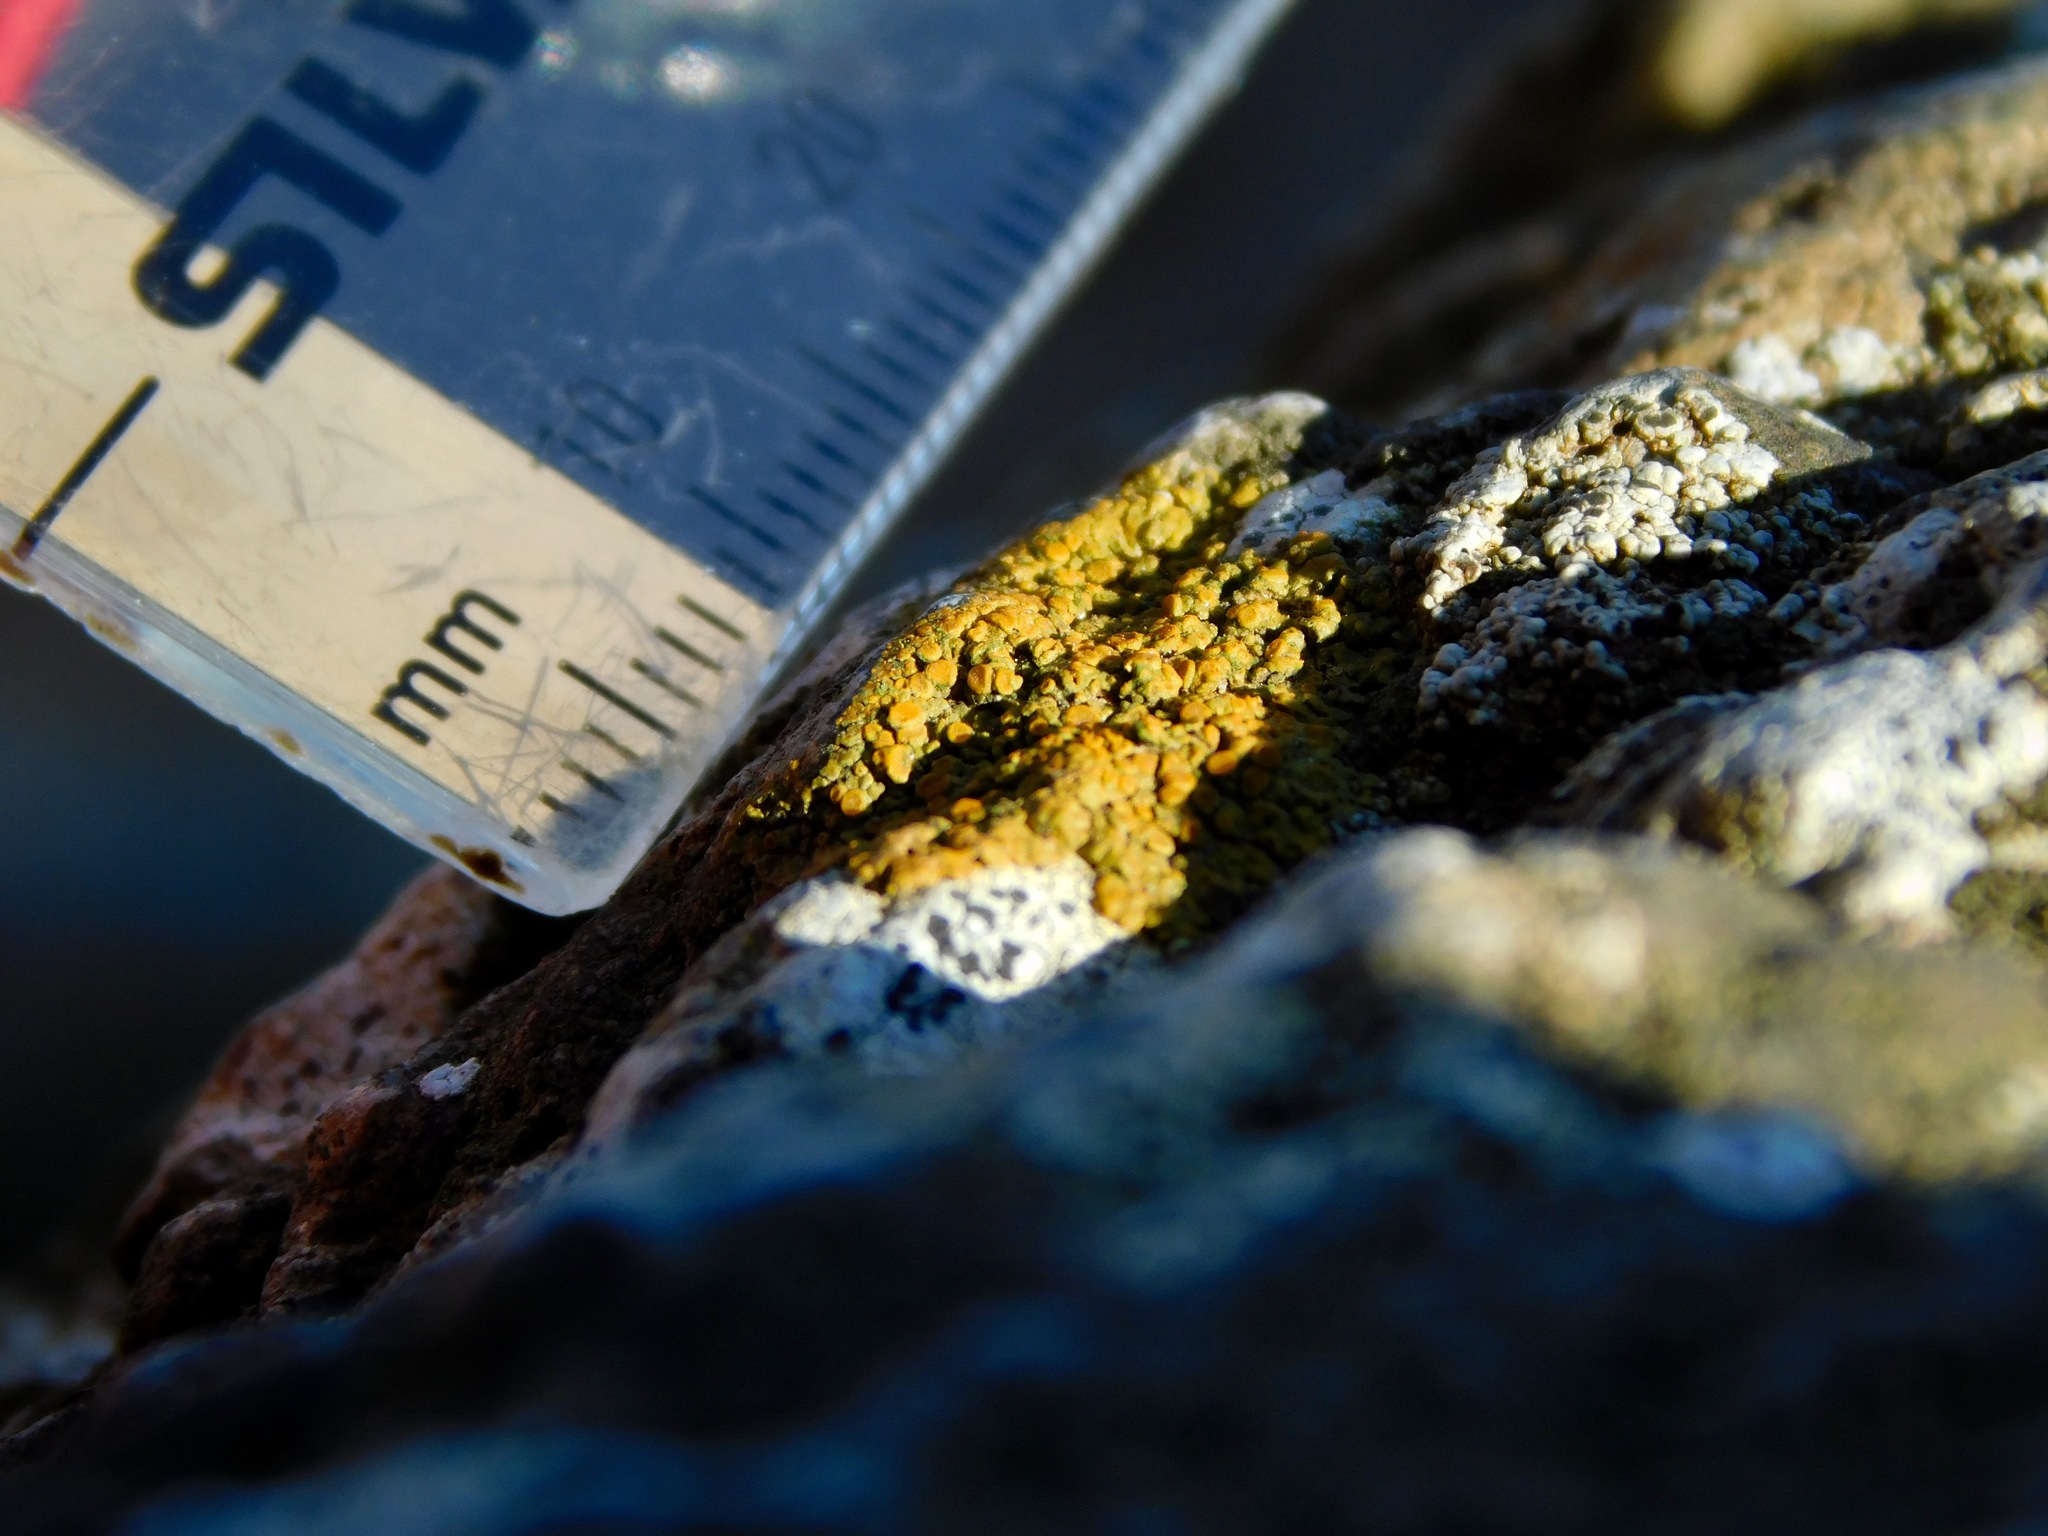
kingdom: Fungi
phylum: Ascomycota
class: Lecanoromycetes
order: Teloschistales
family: Teloschistaceae
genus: Squamulea
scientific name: Squamulea subsoluta
